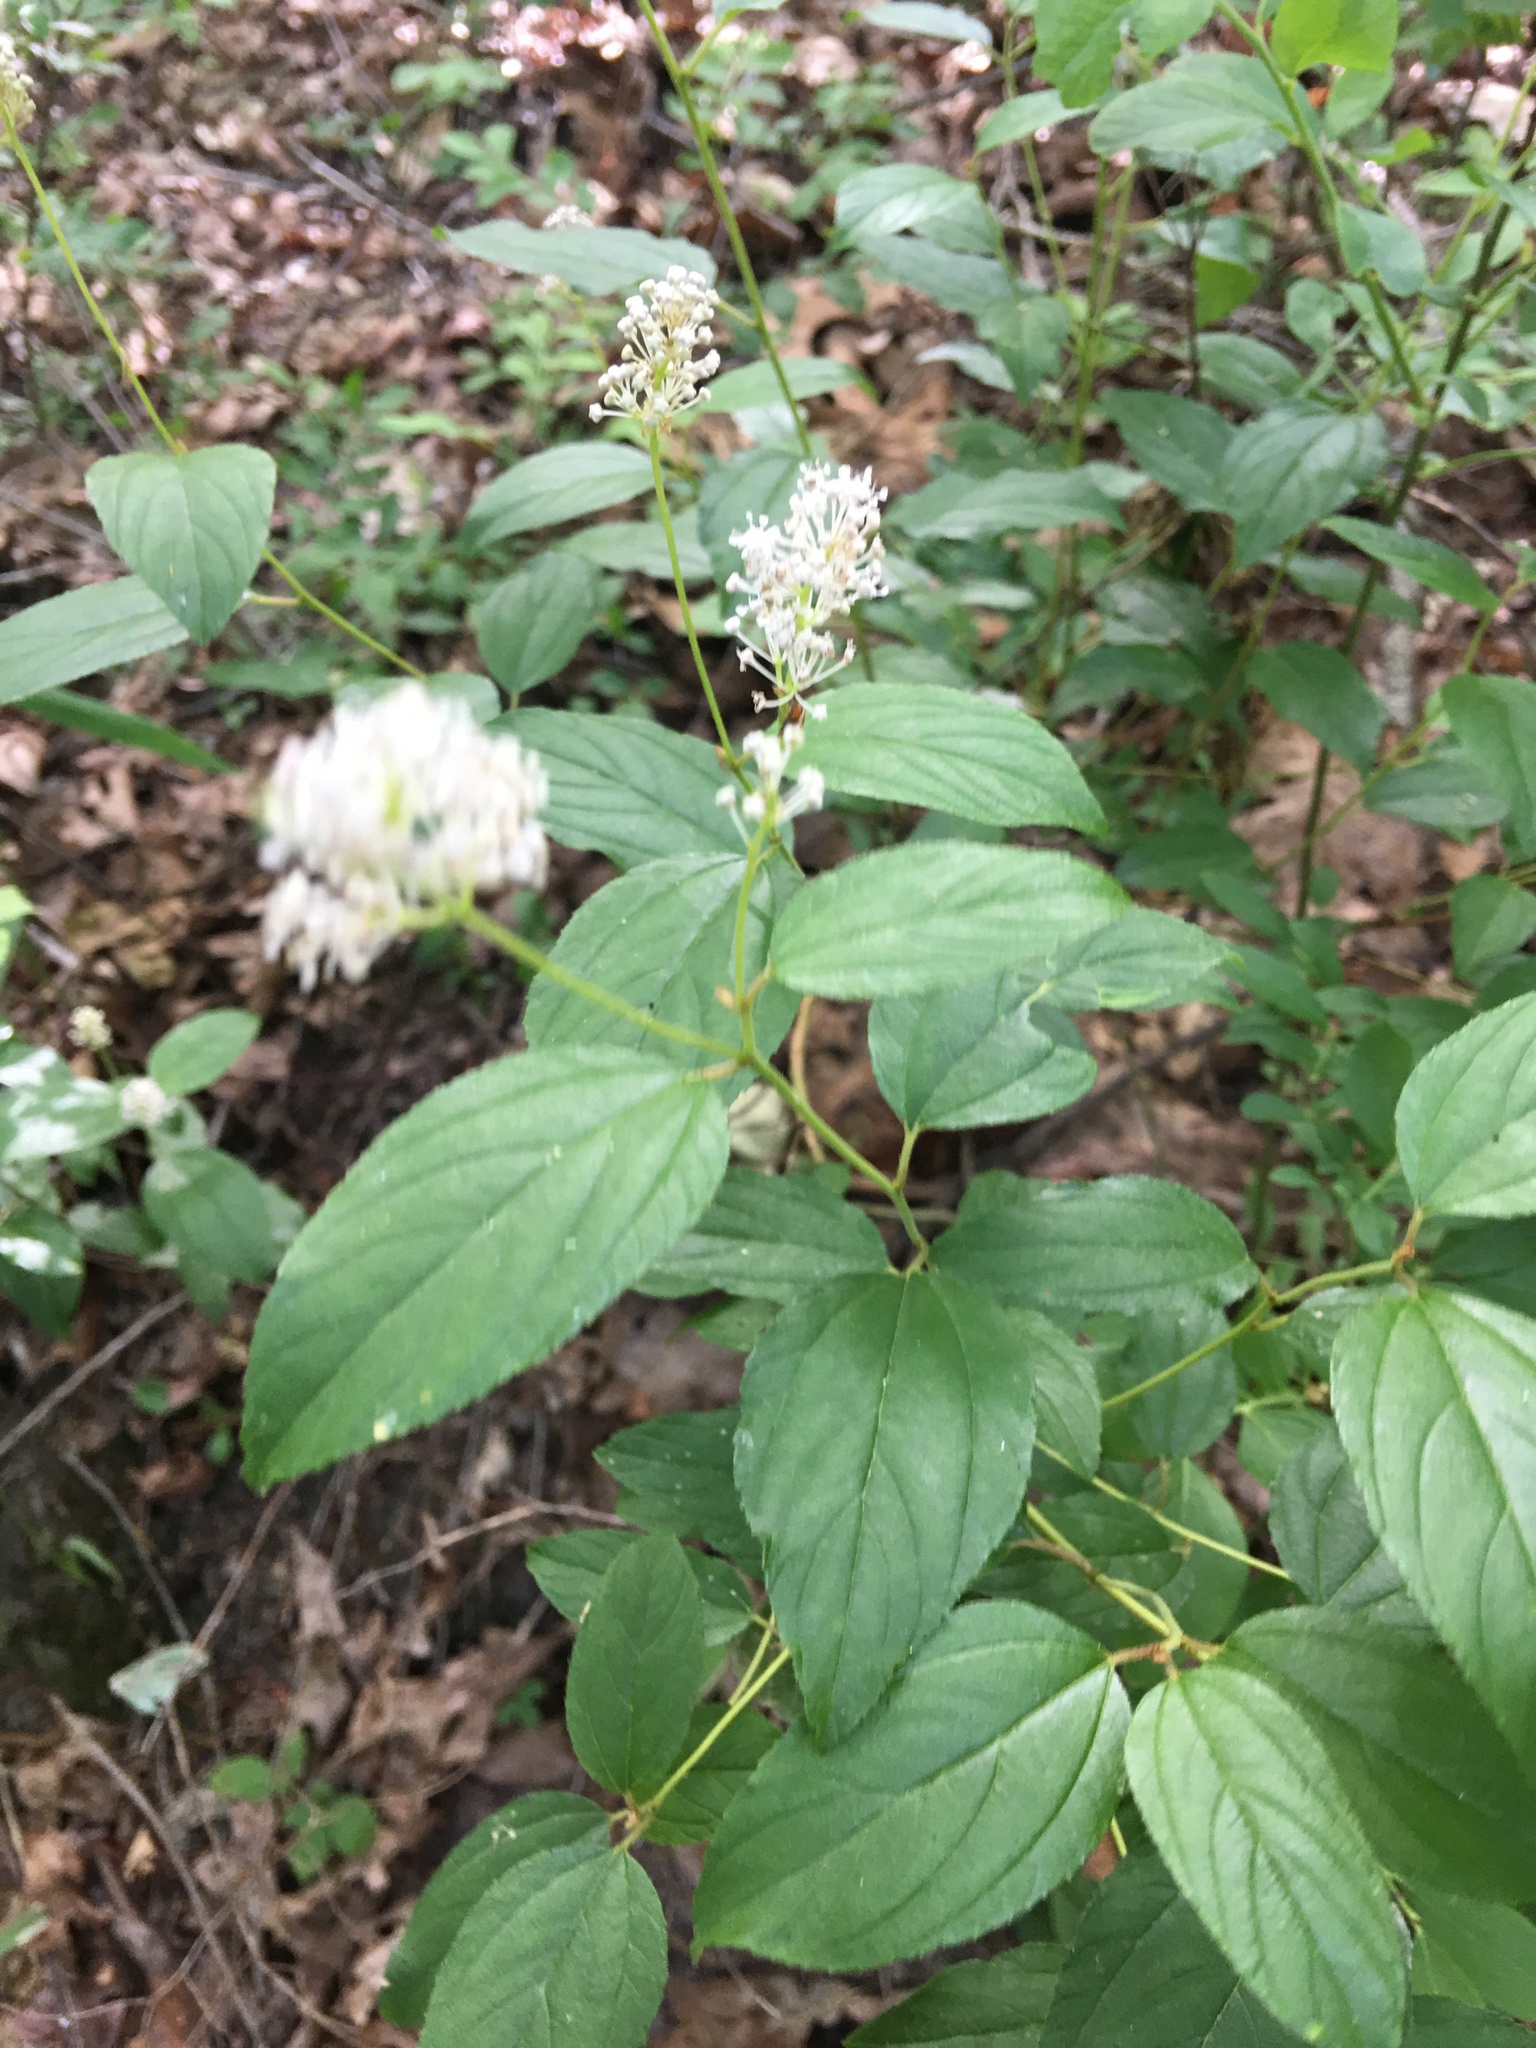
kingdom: Plantae
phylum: Tracheophyta
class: Magnoliopsida
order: Rosales
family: Rhamnaceae
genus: Ceanothus
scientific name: Ceanothus americanus
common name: Redroot
